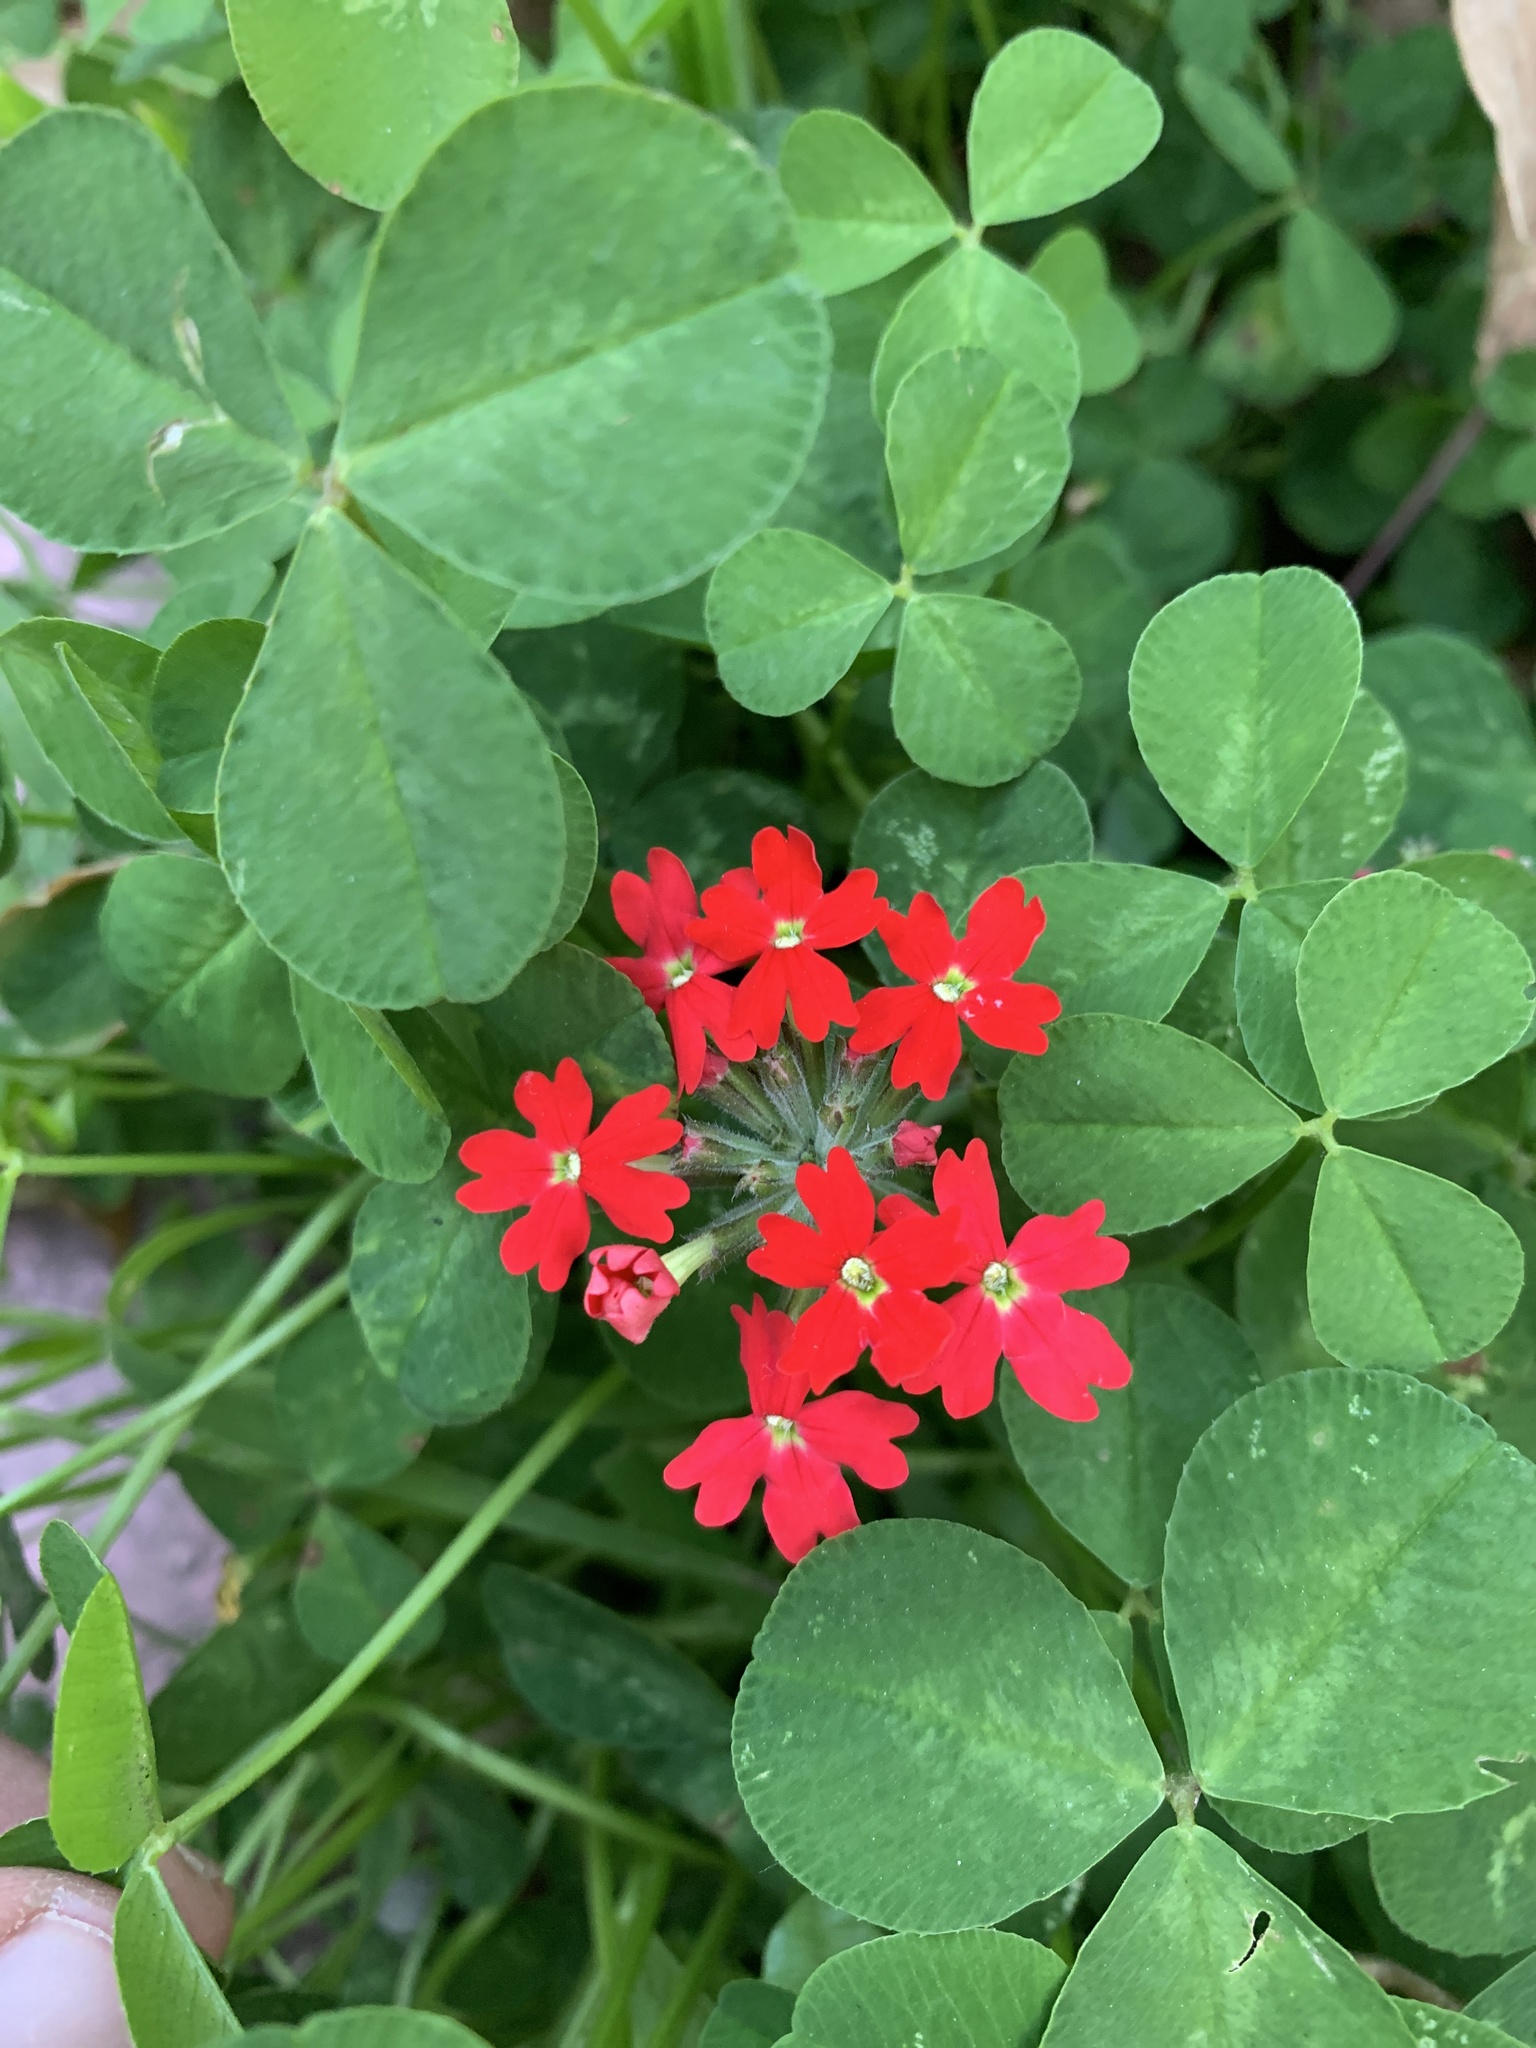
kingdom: Plantae
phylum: Tracheophyta
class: Magnoliopsida
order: Lamiales
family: Verbenaceae
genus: Verbena
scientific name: Verbena peruviana
